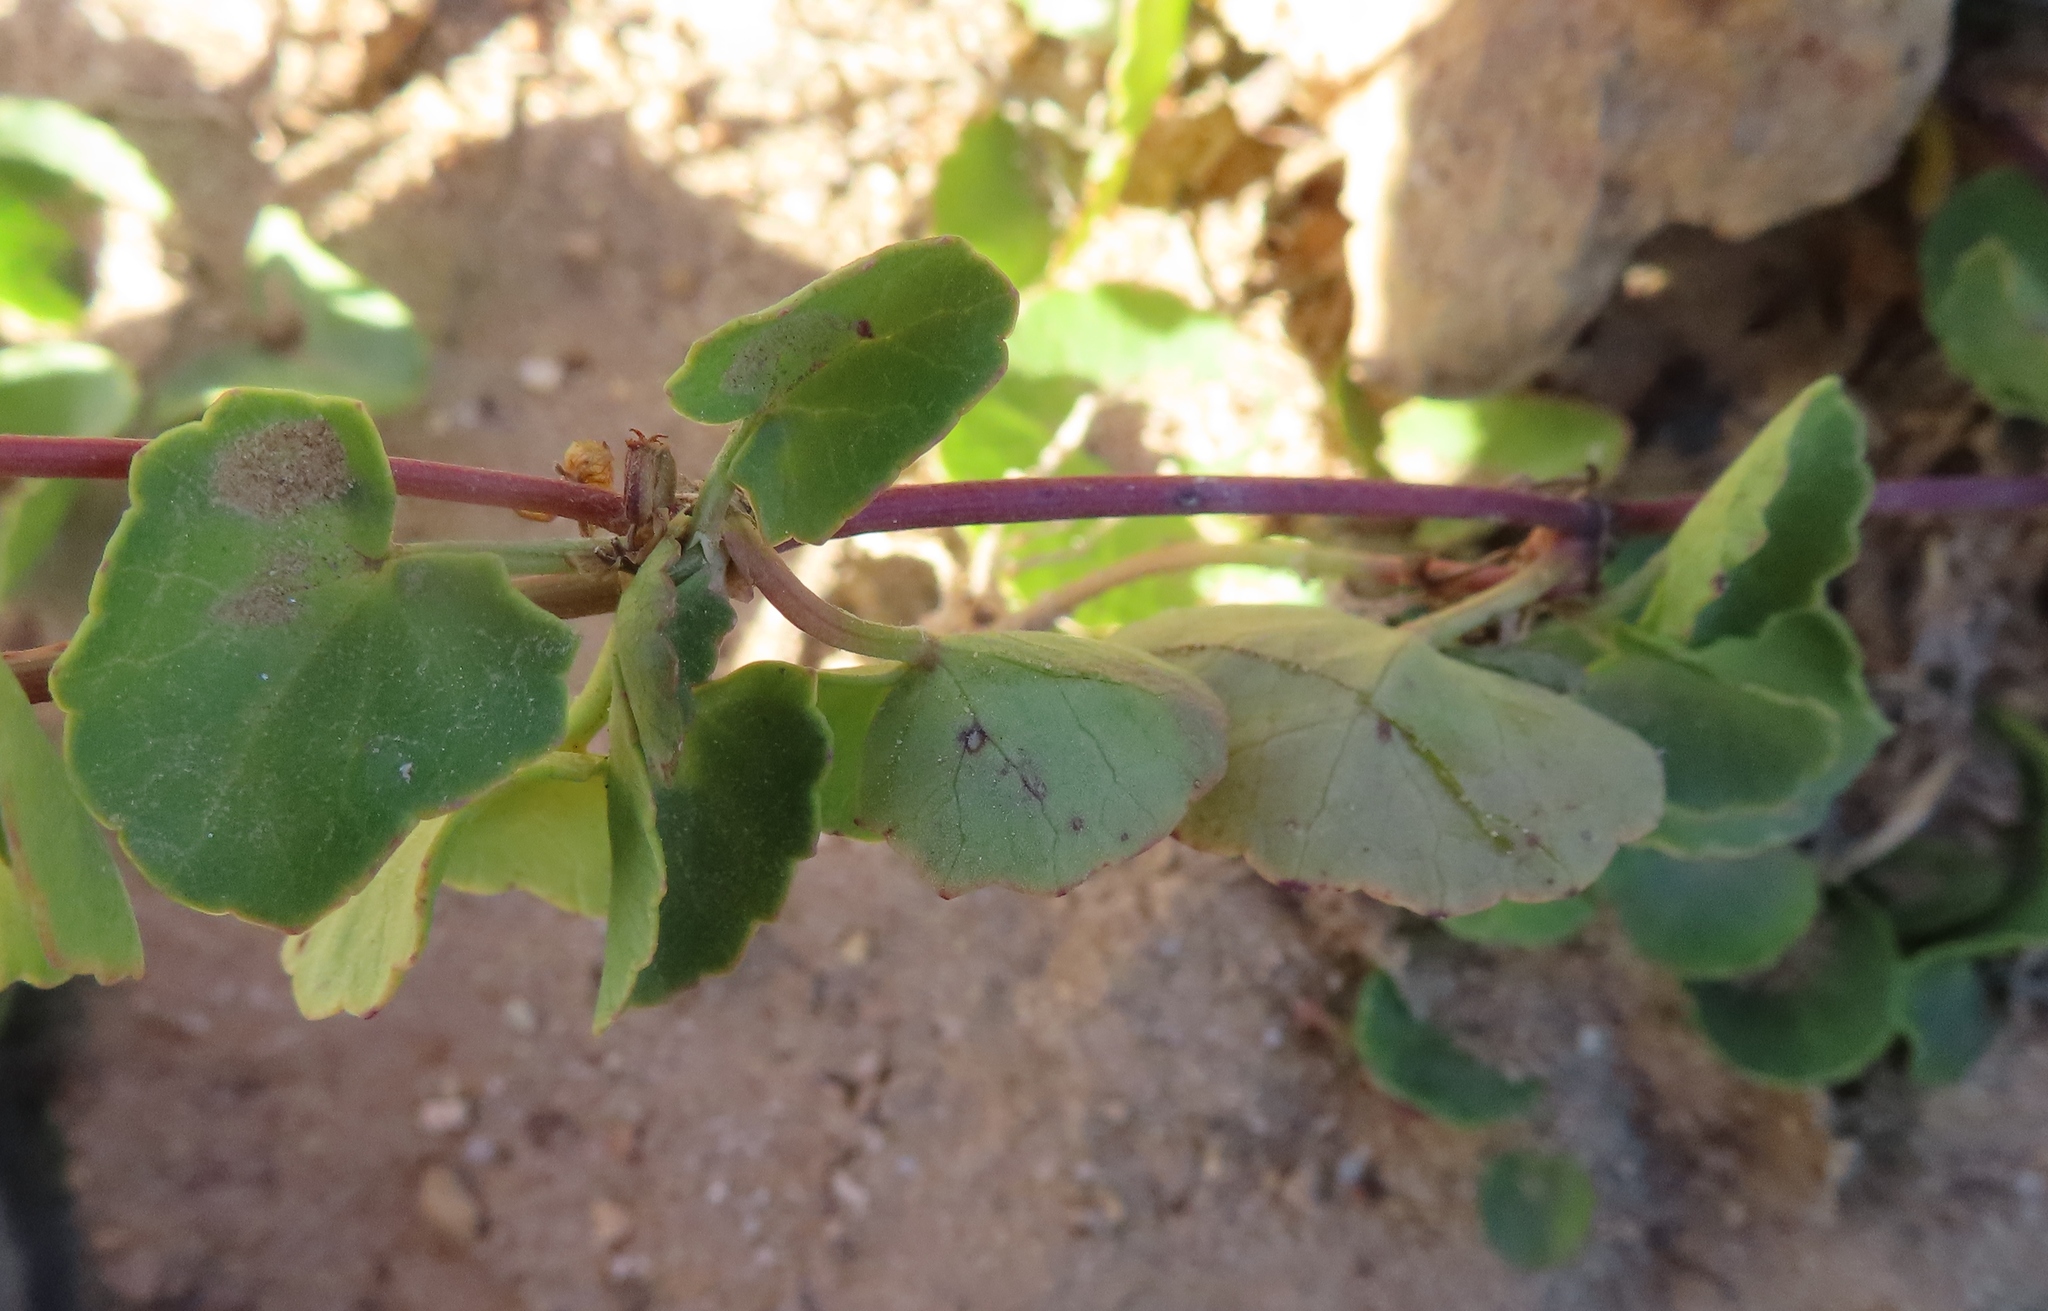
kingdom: Plantae
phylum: Tracheophyta
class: Magnoliopsida
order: Apiales
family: Apiaceae
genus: Centella
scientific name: Centella asiatica
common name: Spadeleaf
